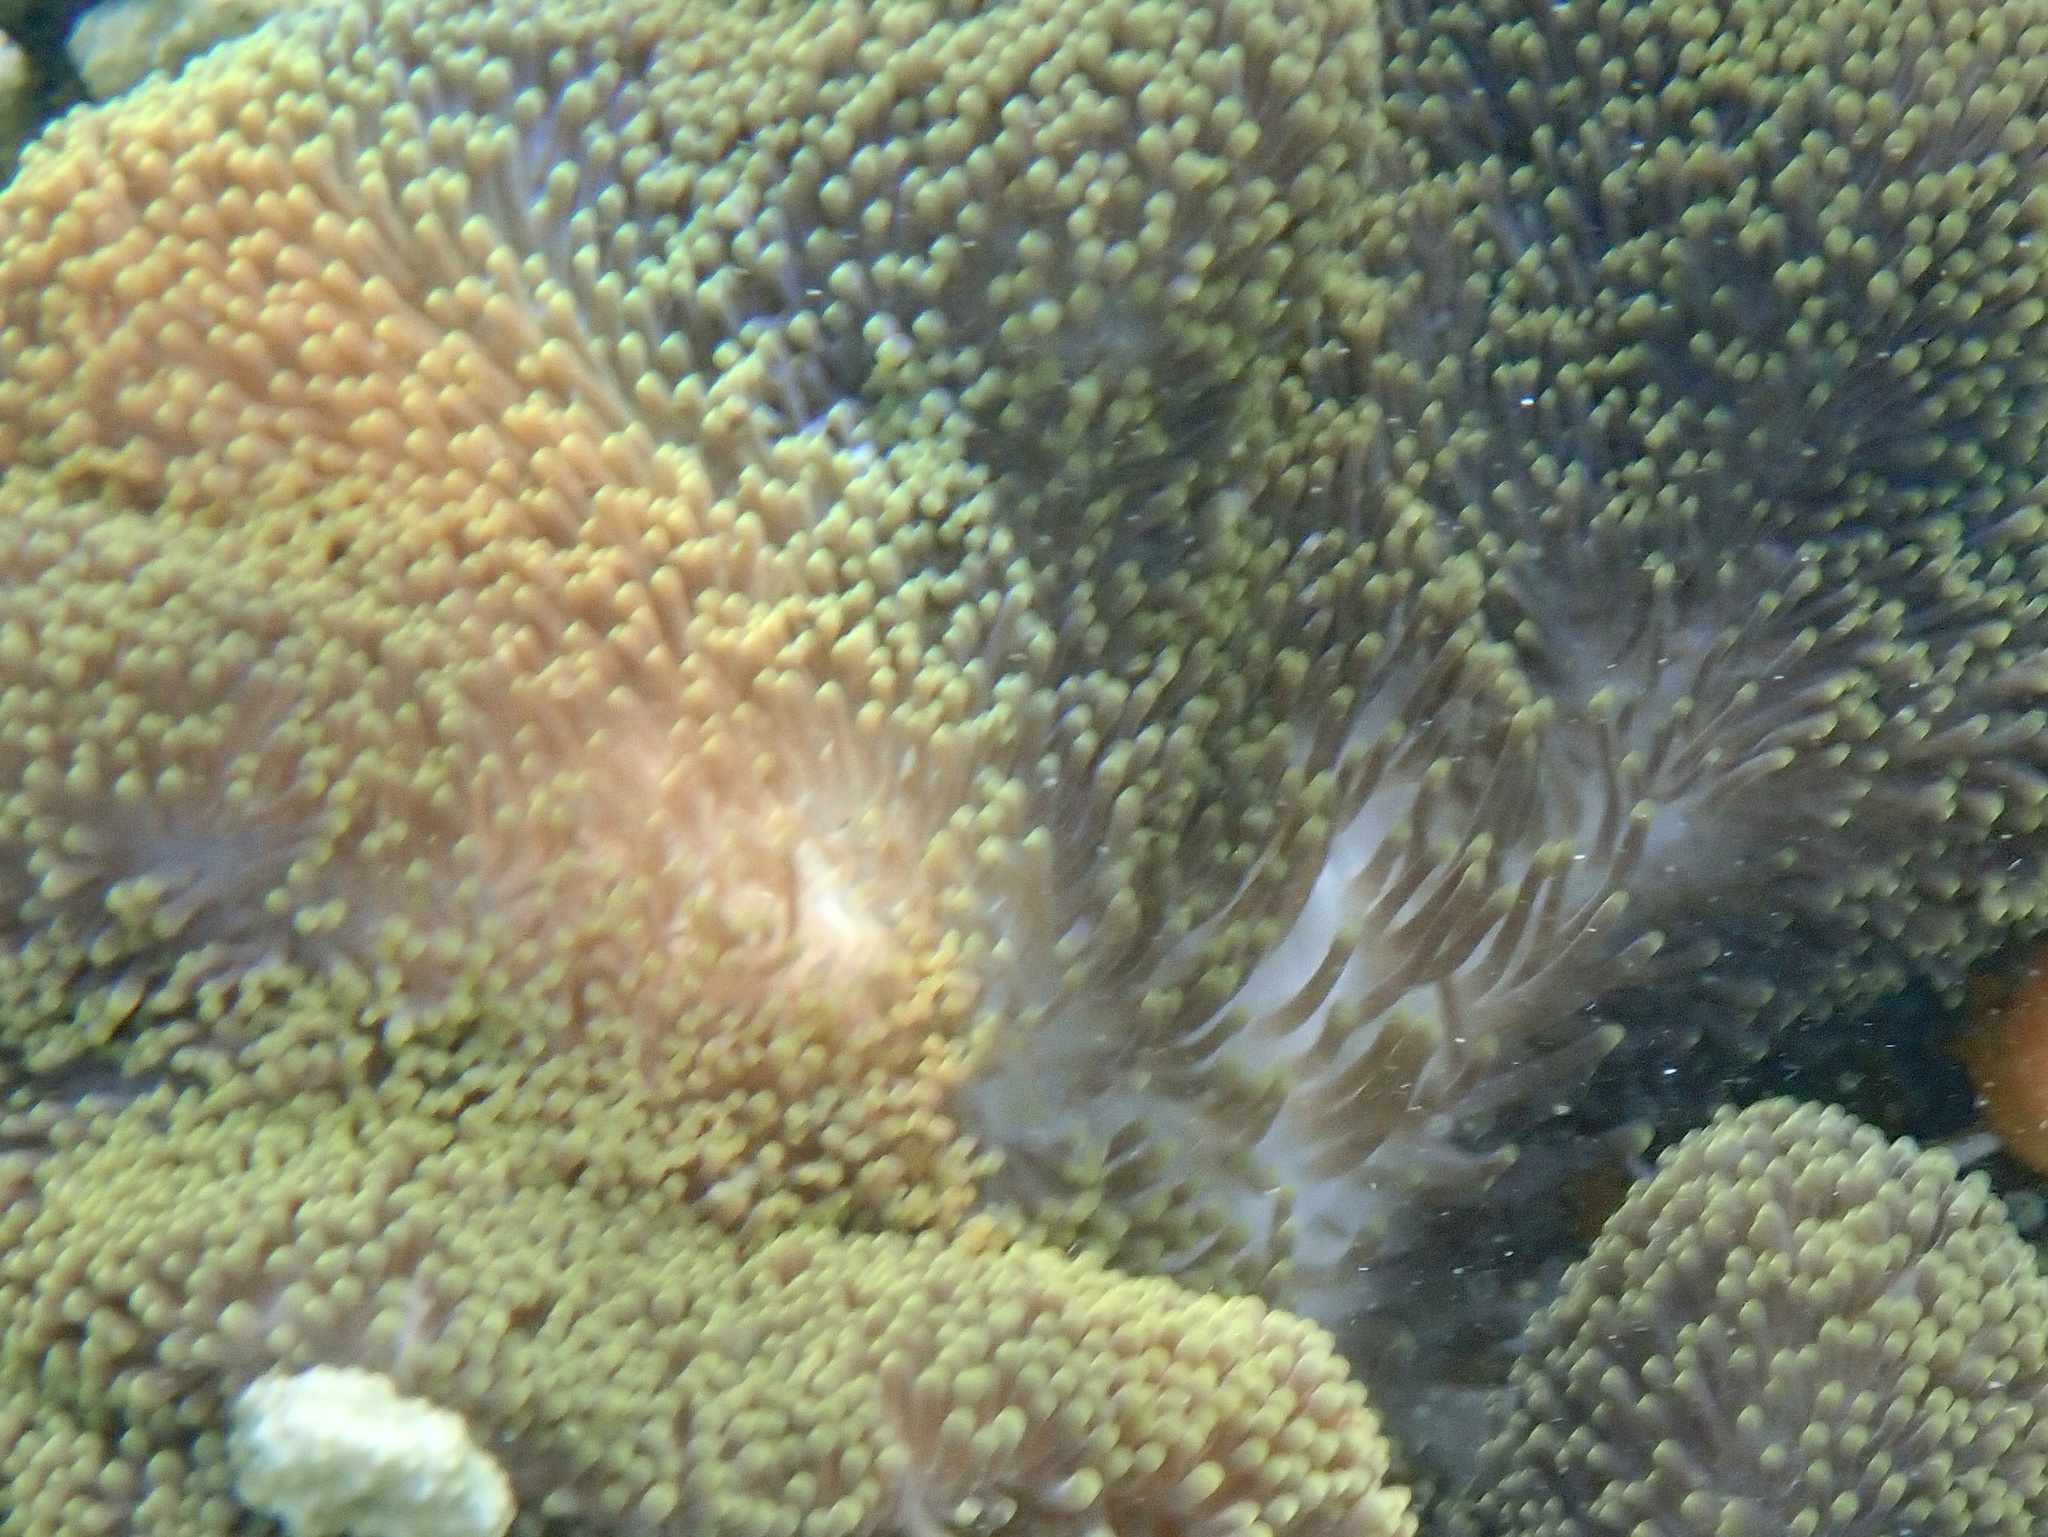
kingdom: Animalia
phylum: Cnidaria
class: Anthozoa
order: Actiniaria
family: Stichodactylidae
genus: Stichodactyla
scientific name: Stichodactyla mertensii
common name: Merten's sea anemone
